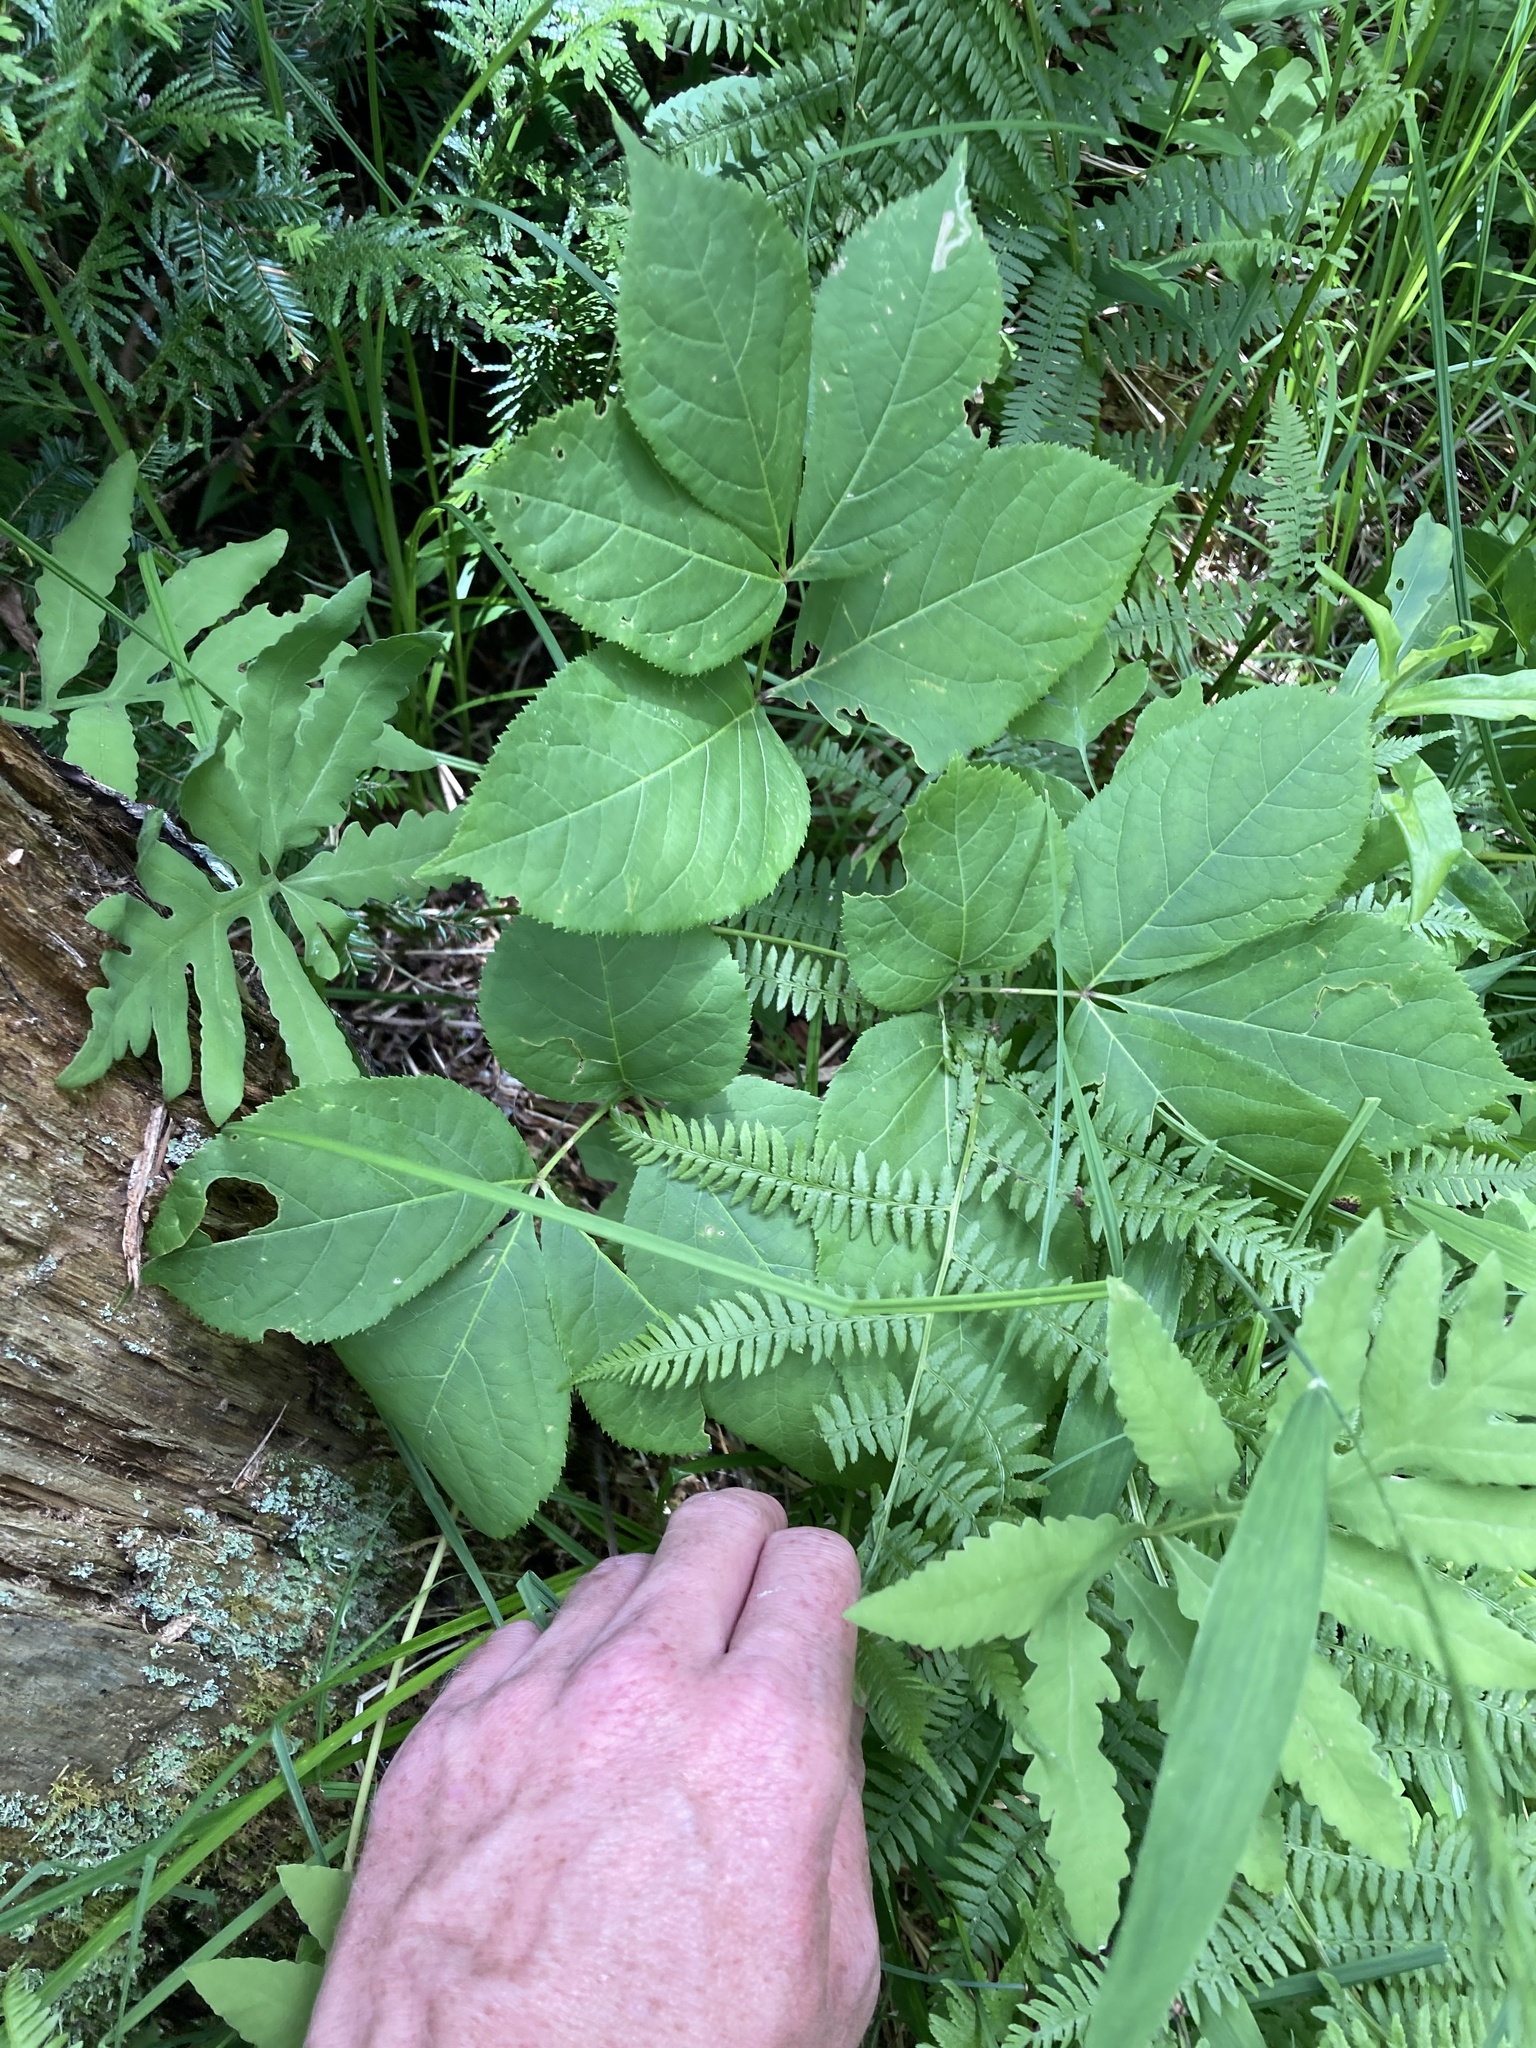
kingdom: Plantae
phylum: Tracheophyta
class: Magnoliopsida
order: Apiales
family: Araliaceae
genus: Aralia
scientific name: Aralia nudicaulis
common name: Wild sarsaparilla
